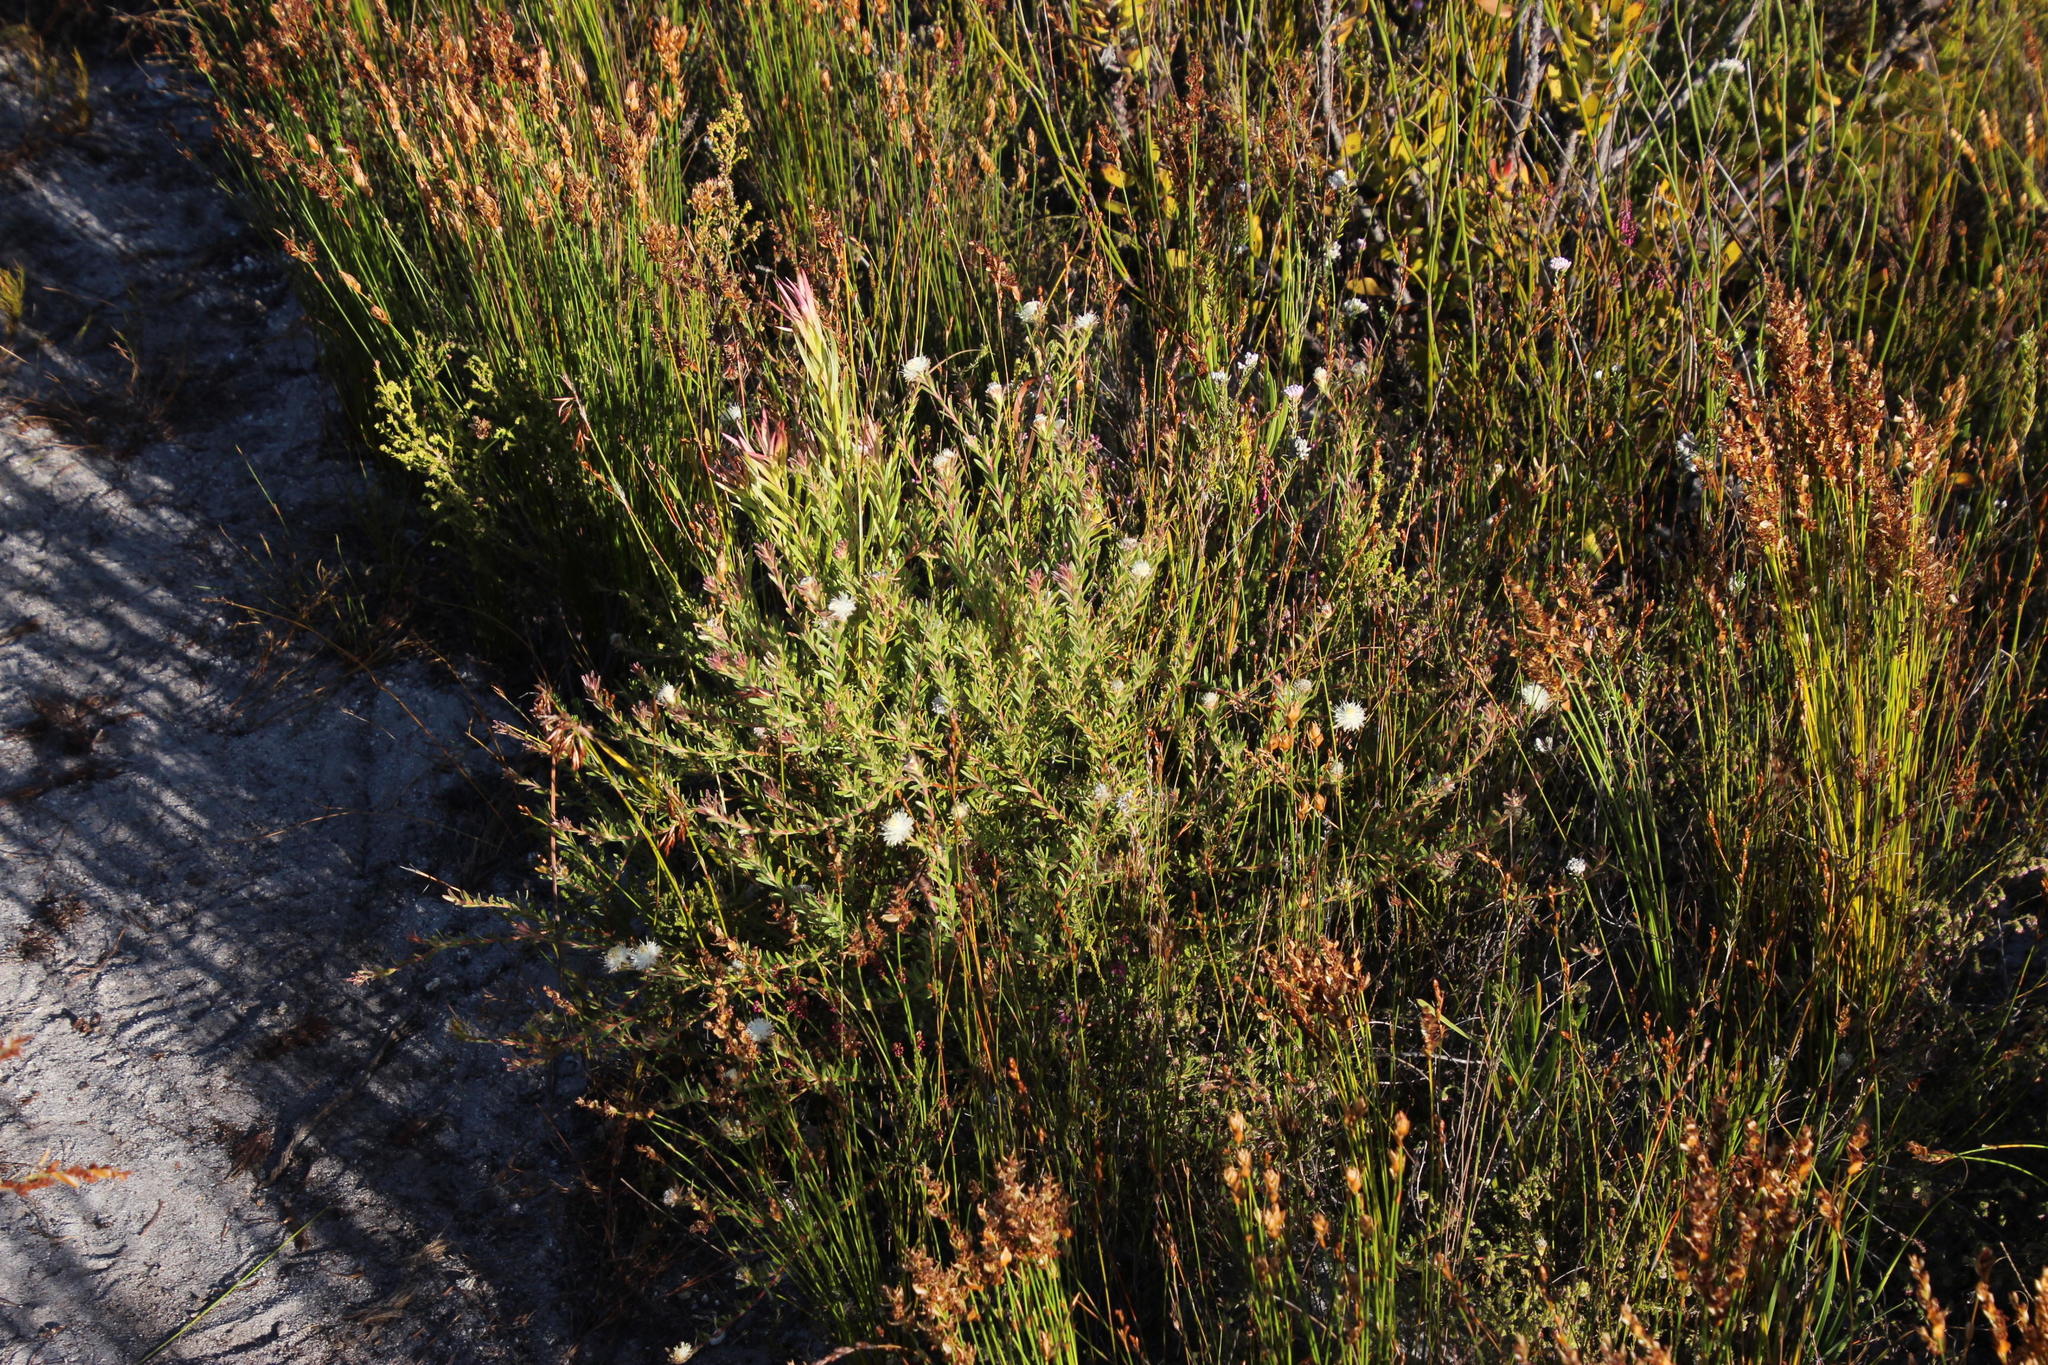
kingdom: Plantae
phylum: Tracheophyta
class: Magnoliopsida
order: Proteales
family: Proteaceae
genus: Diastella
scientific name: Diastella divaricata
